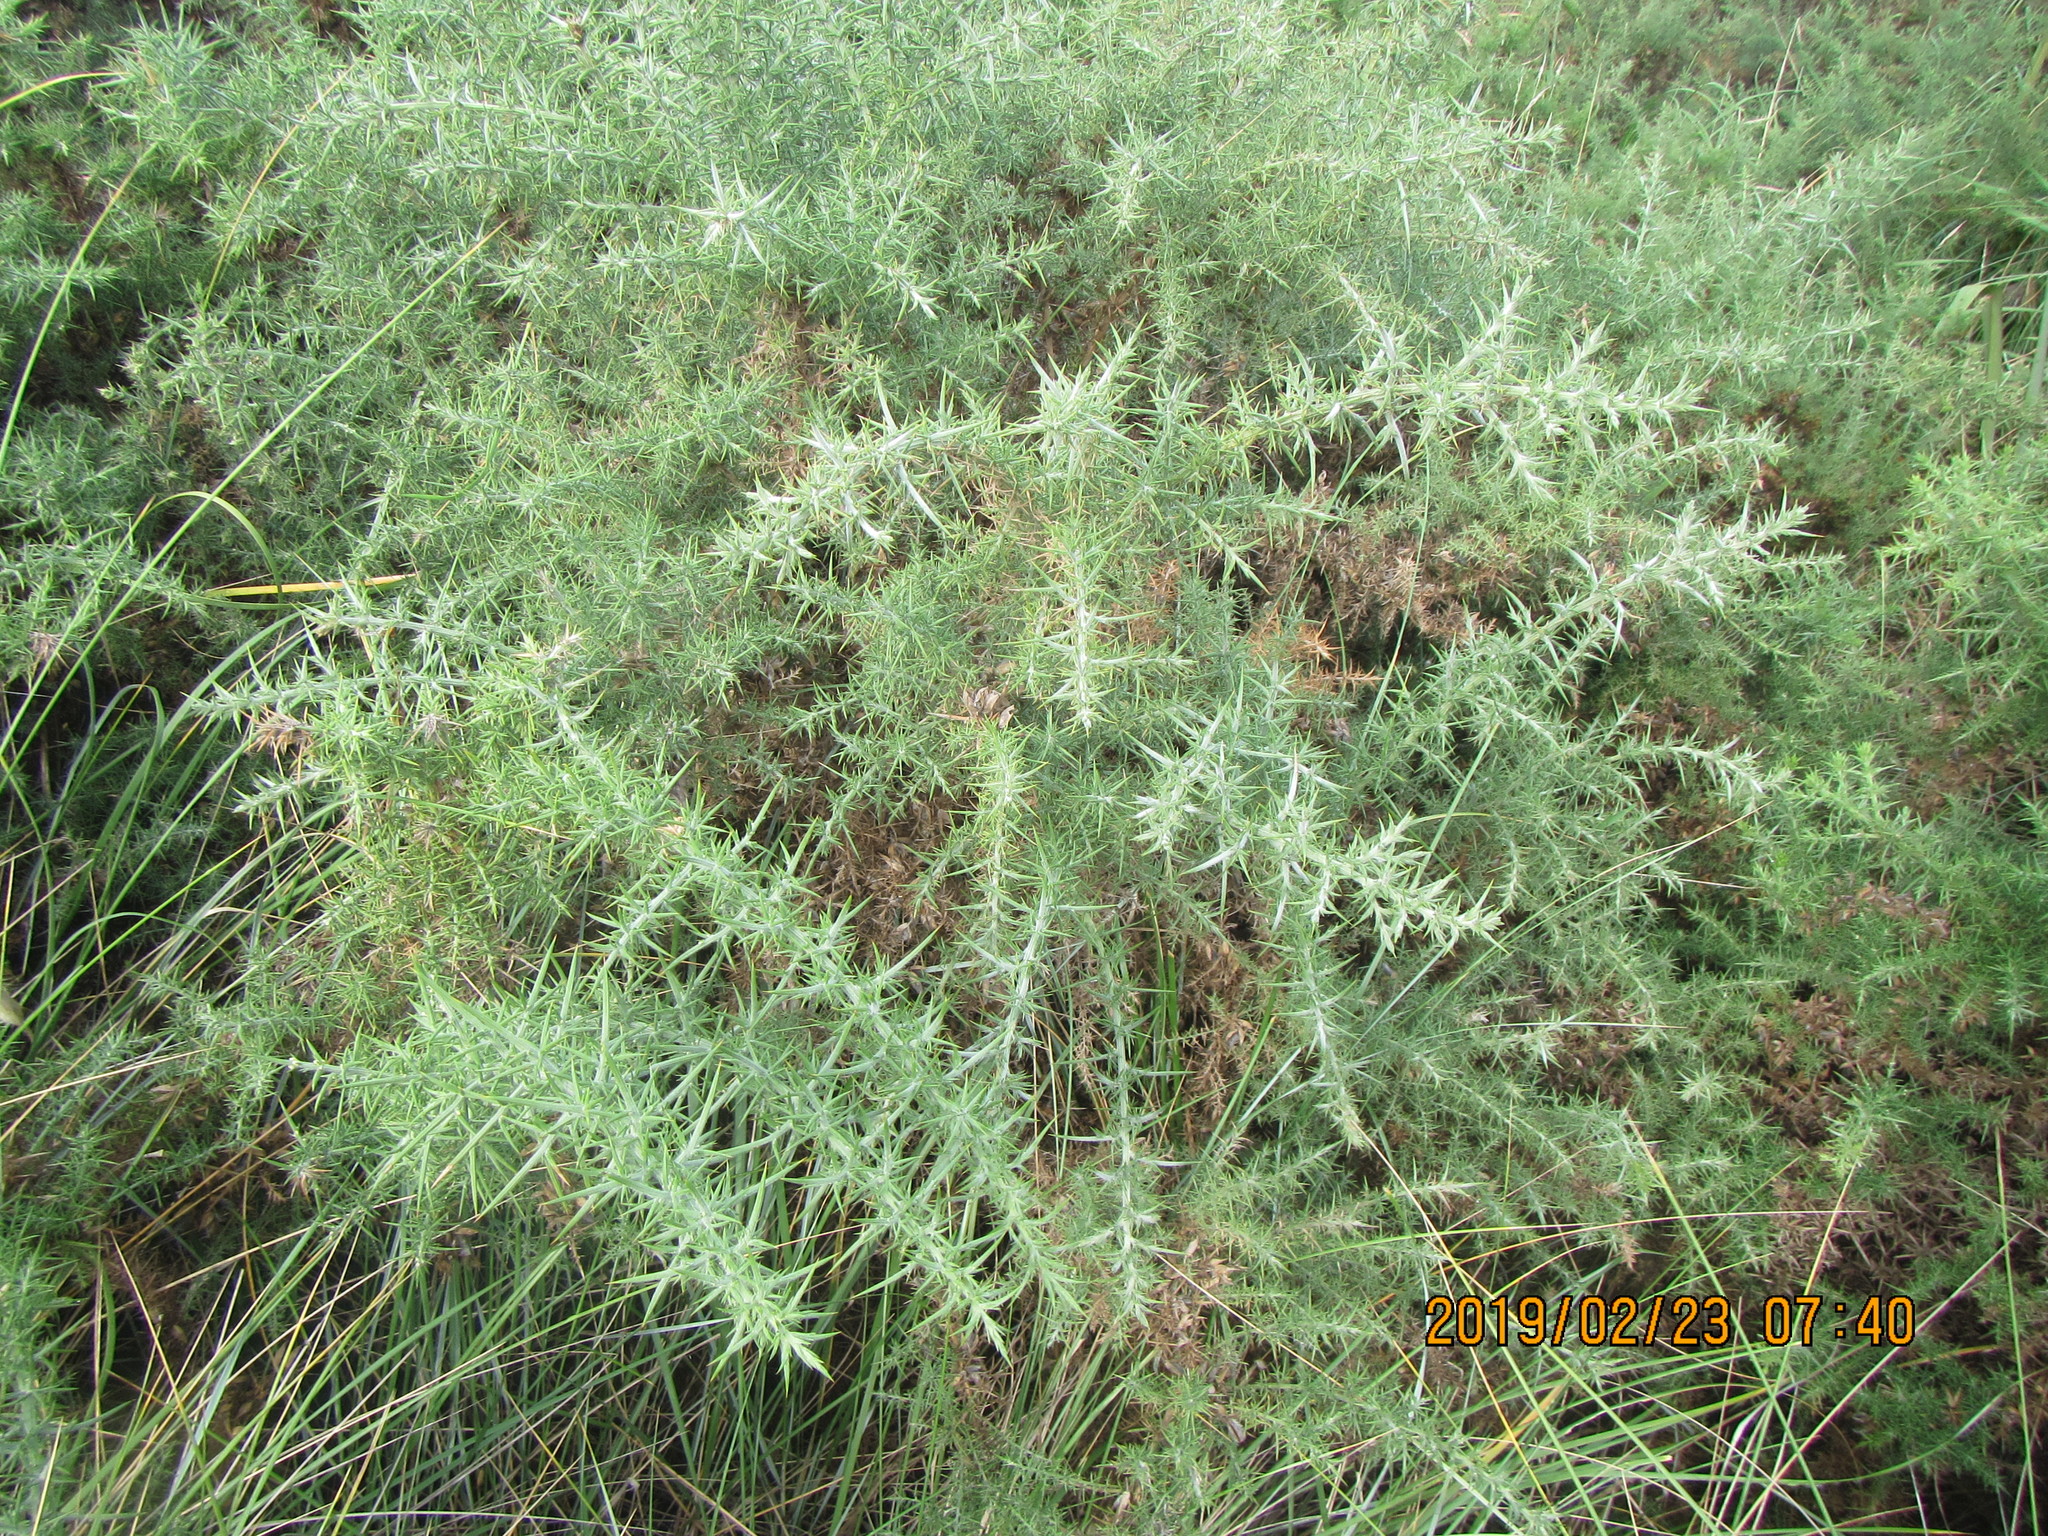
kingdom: Plantae
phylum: Tracheophyta
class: Magnoliopsida
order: Fabales
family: Fabaceae
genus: Ulex
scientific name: Ulex europaeus
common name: Common gorse
